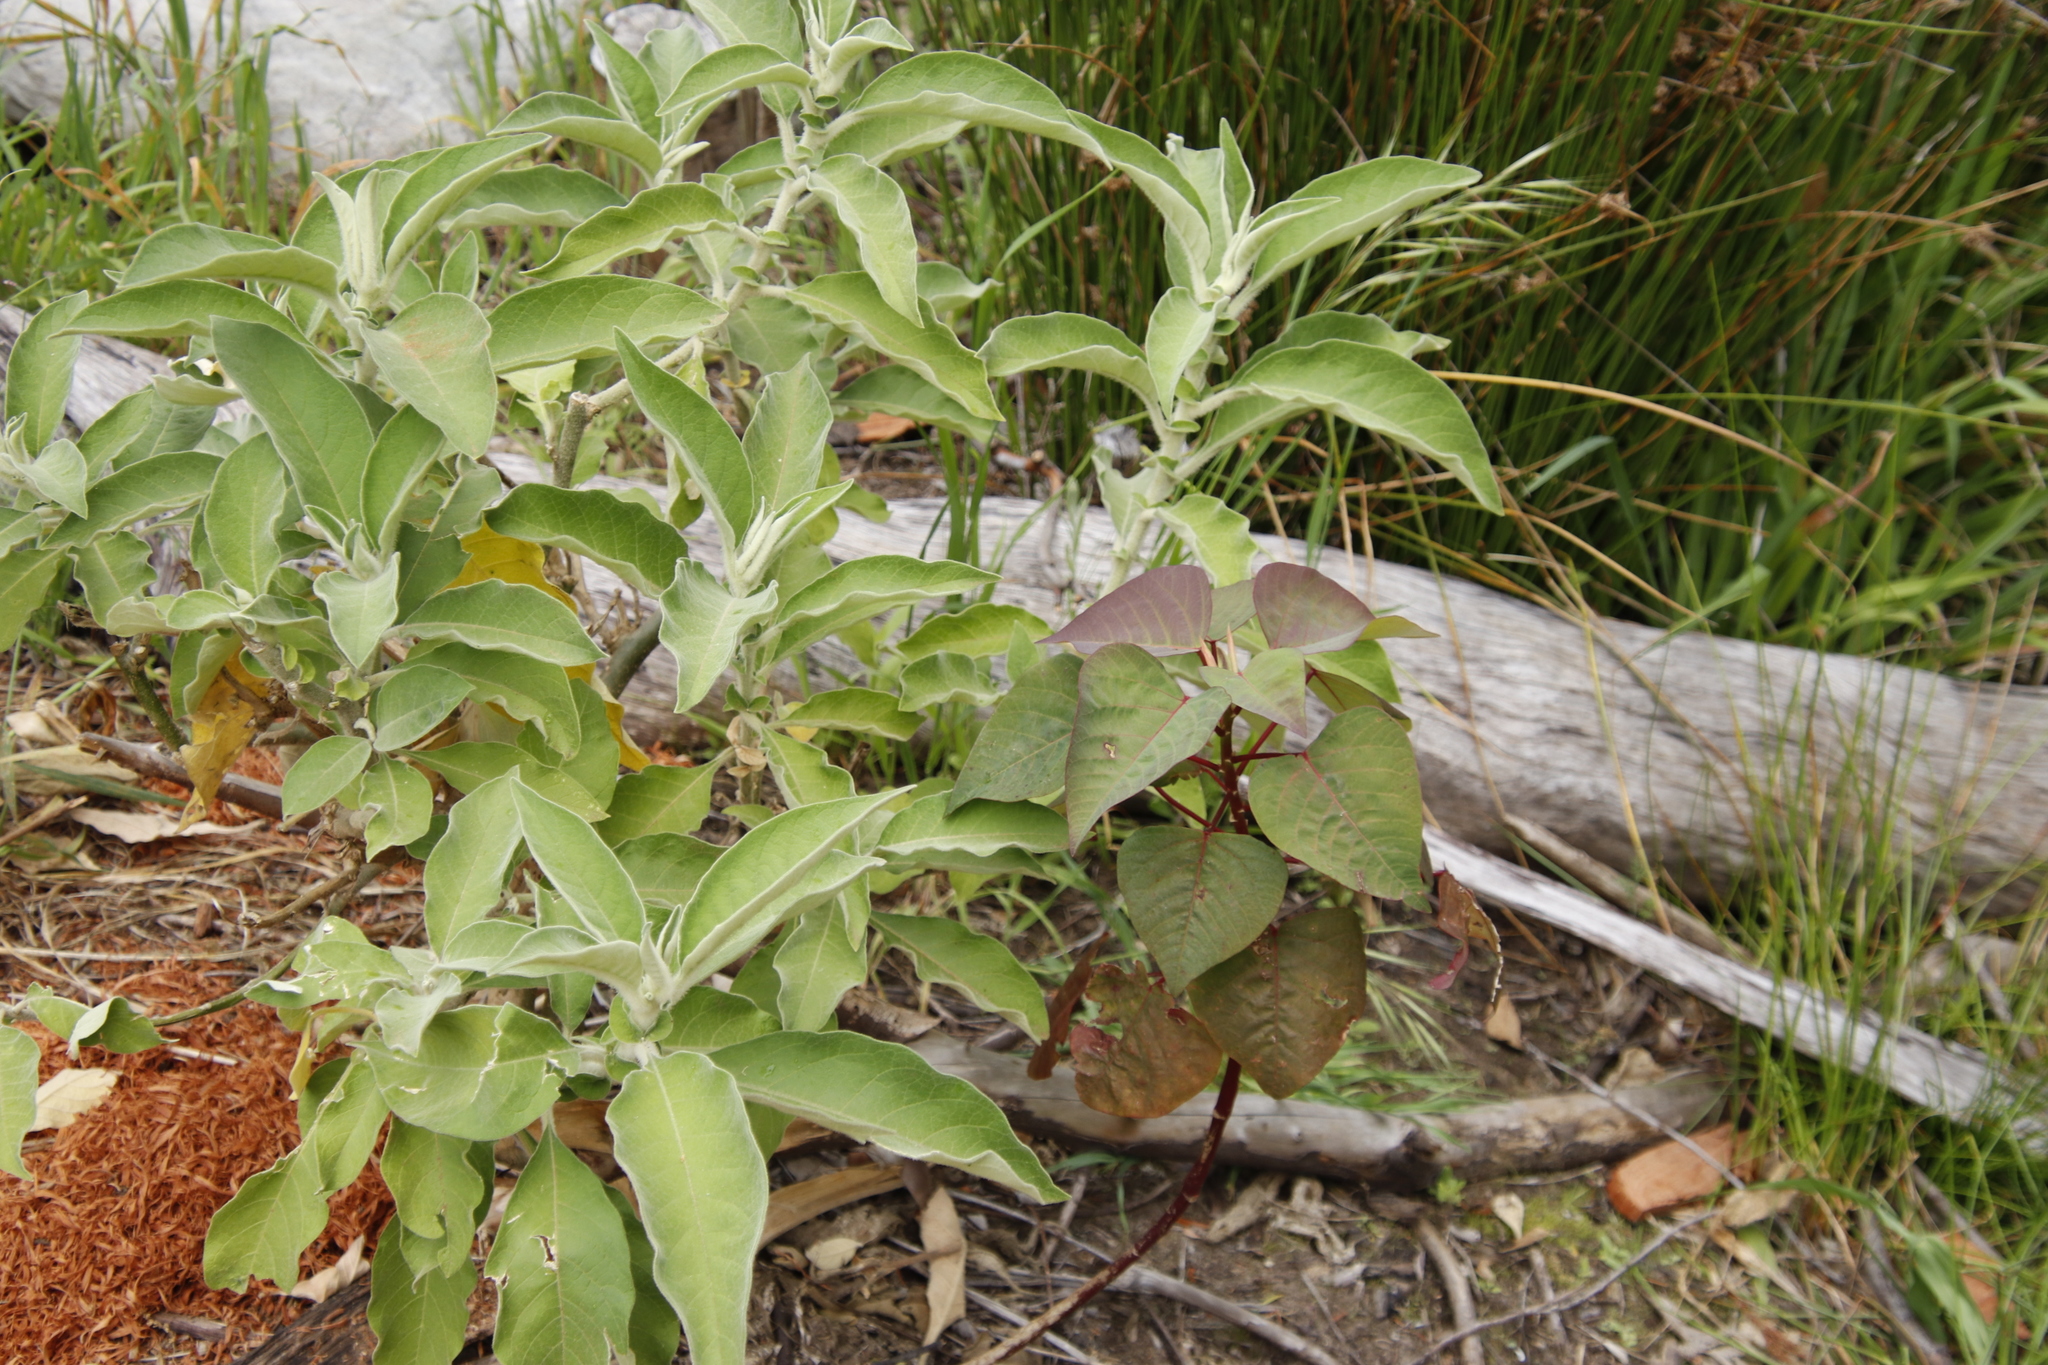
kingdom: Plantae
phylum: Tracheophyta
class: Magnoliopsida
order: Solanales
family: Solanaceae
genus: Solanum
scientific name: Solanum mauritianum
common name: Earleaf nightshade
